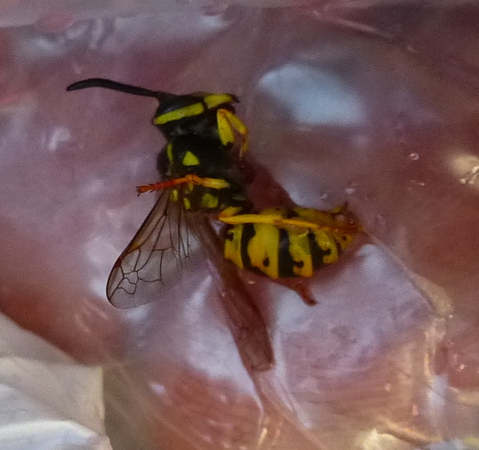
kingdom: Animalia
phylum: Arthropoda
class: Insecta
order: Hymenoptera
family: Vespidae
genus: Vespula
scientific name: Vespula germanica
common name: German wasp
